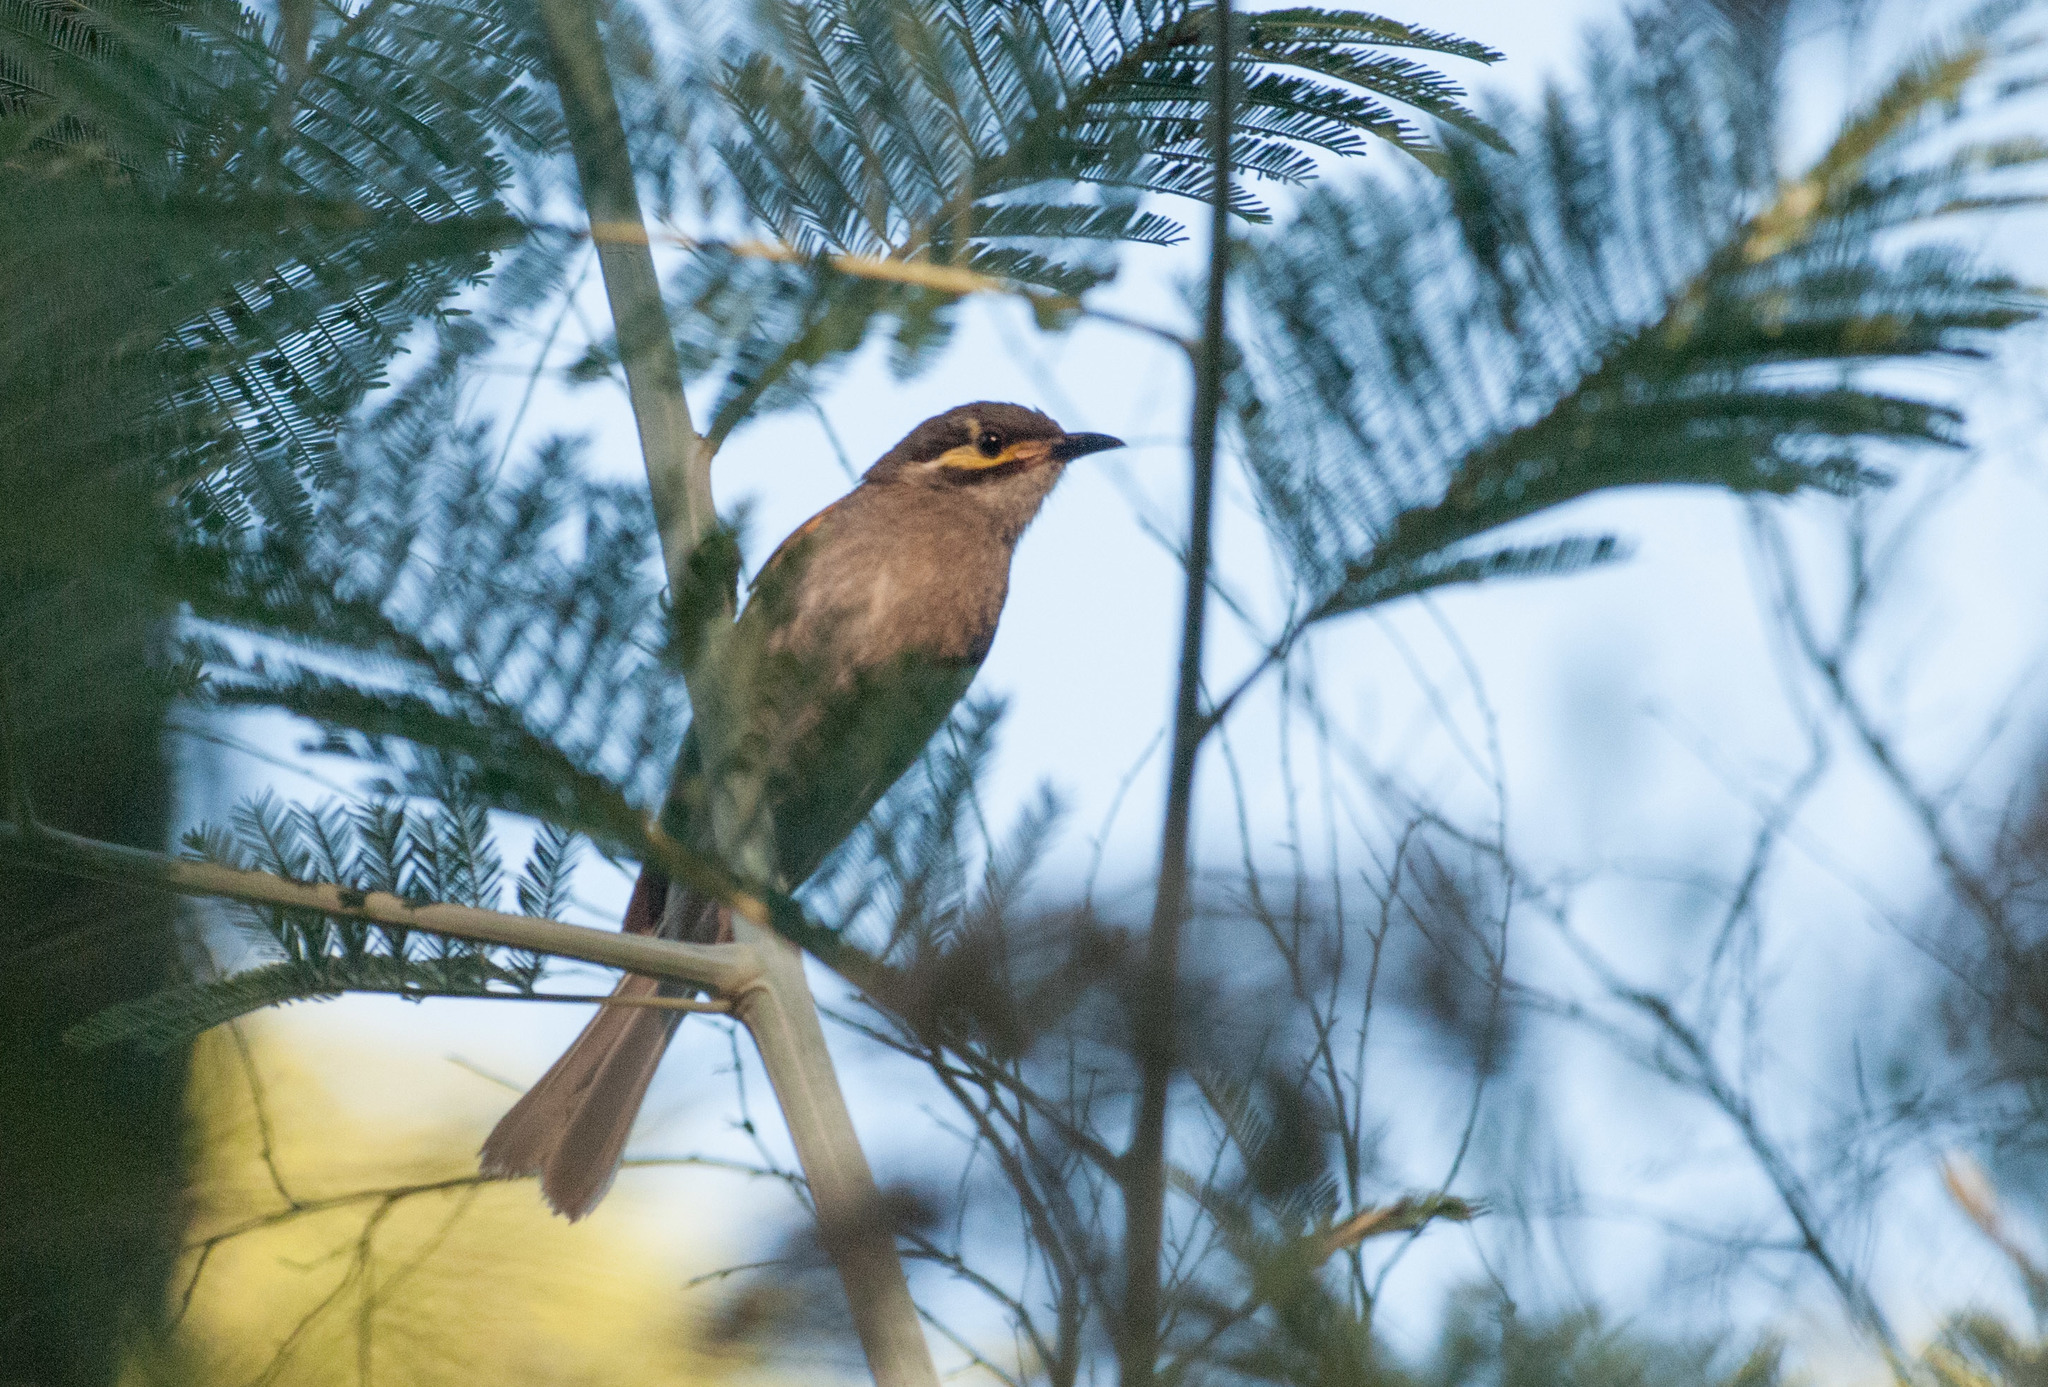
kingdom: Animalia
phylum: Chordata
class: Aves
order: Passeriformes
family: Meliphagidae
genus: Caligavis
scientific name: Caligavis chrysops
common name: Yellow-faced honeyeater
